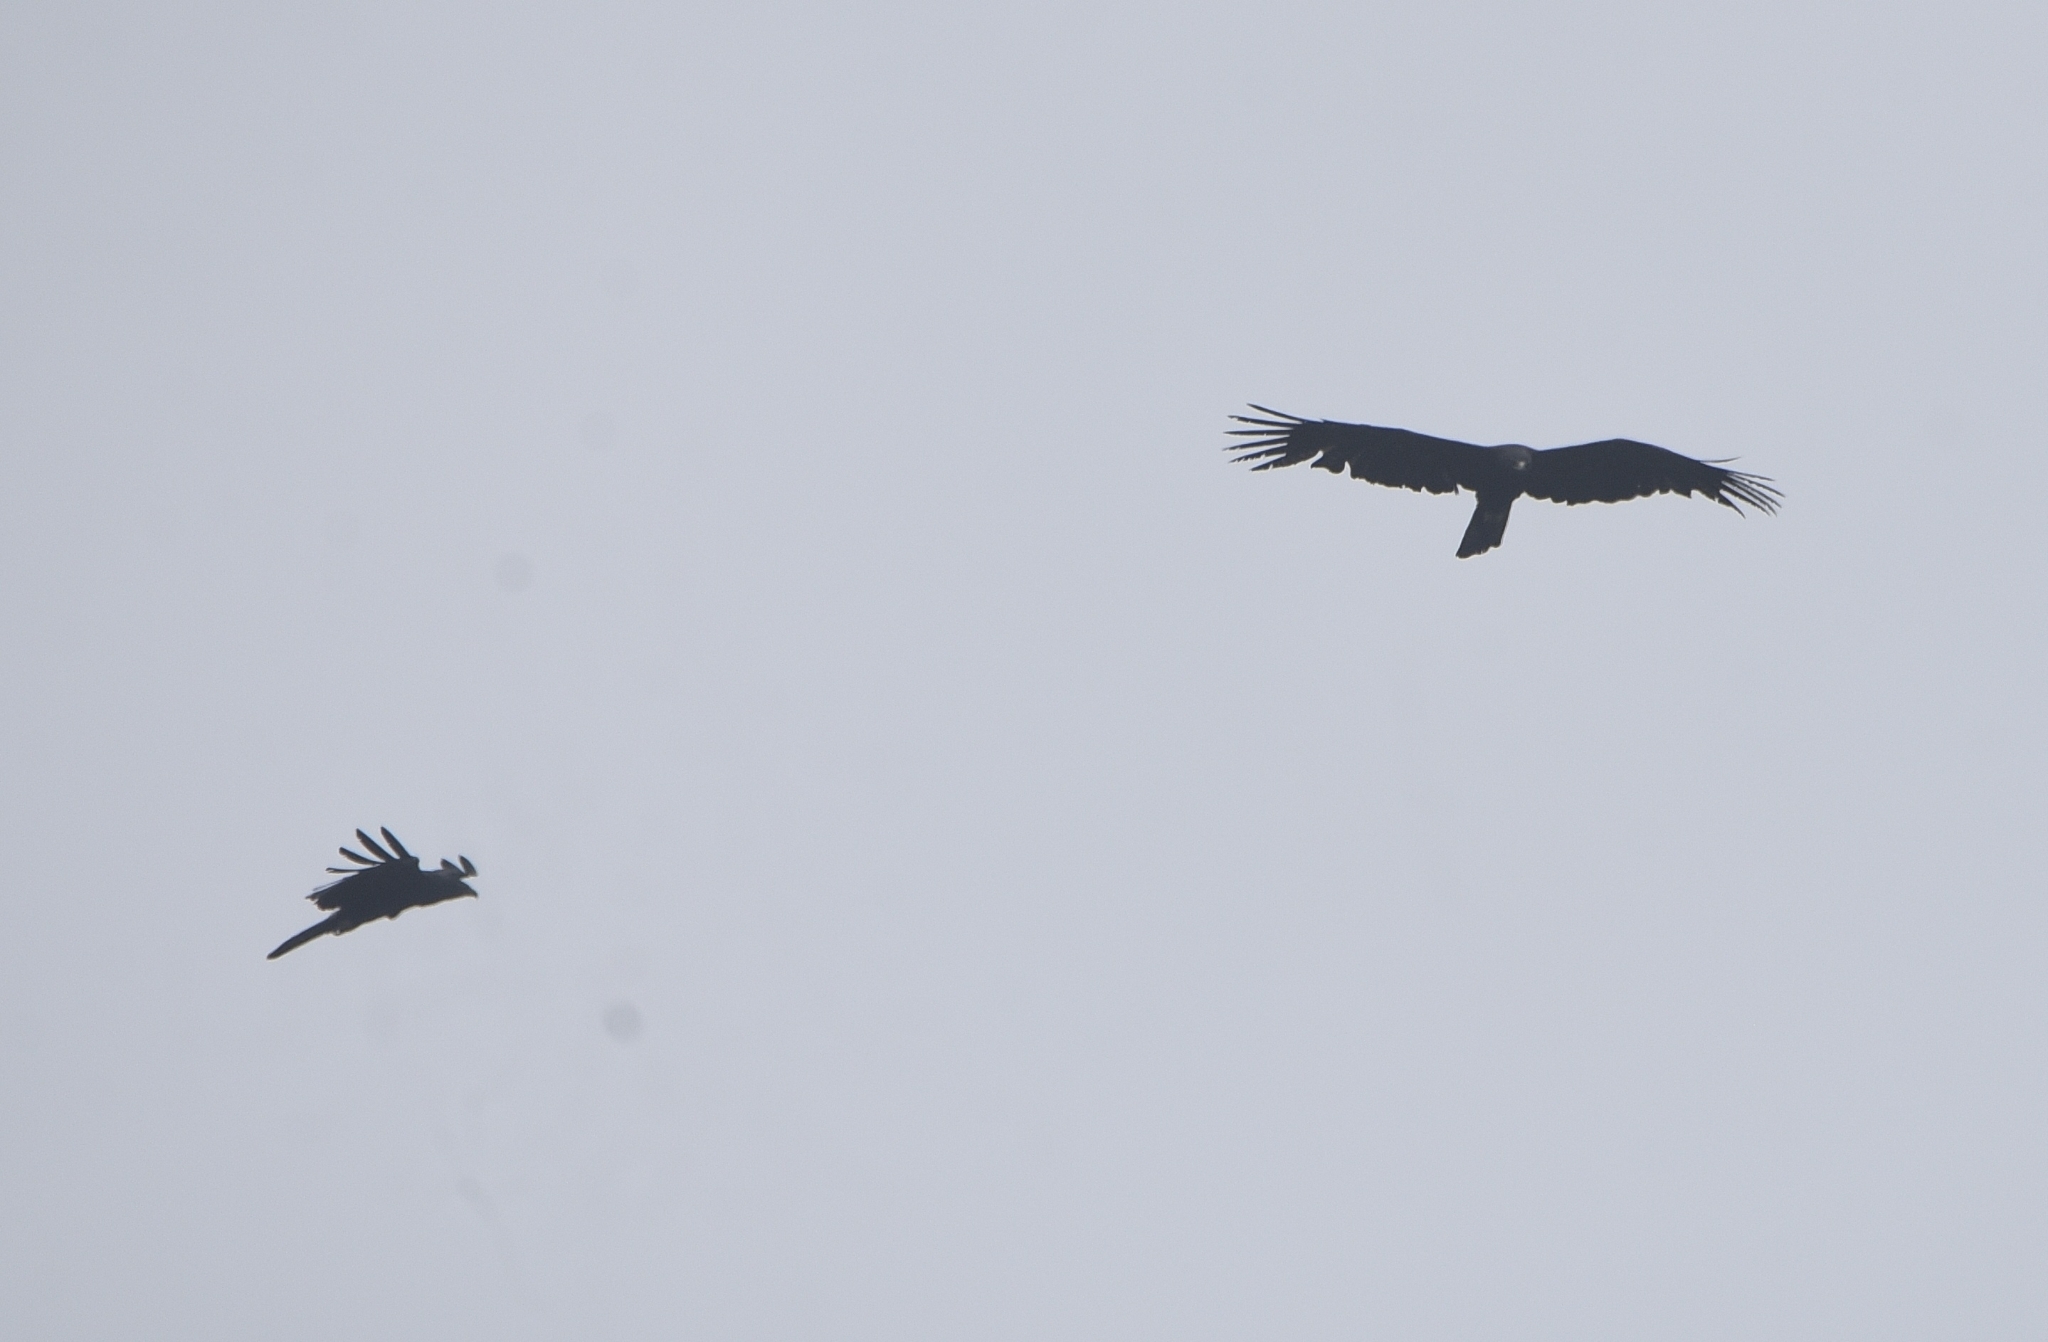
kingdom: Animalia
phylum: Chordata
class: Aves
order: Accipitriformes
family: Accipitridae
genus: Ictinaetus
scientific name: Ictinaetus malayensis
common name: Black eagle
